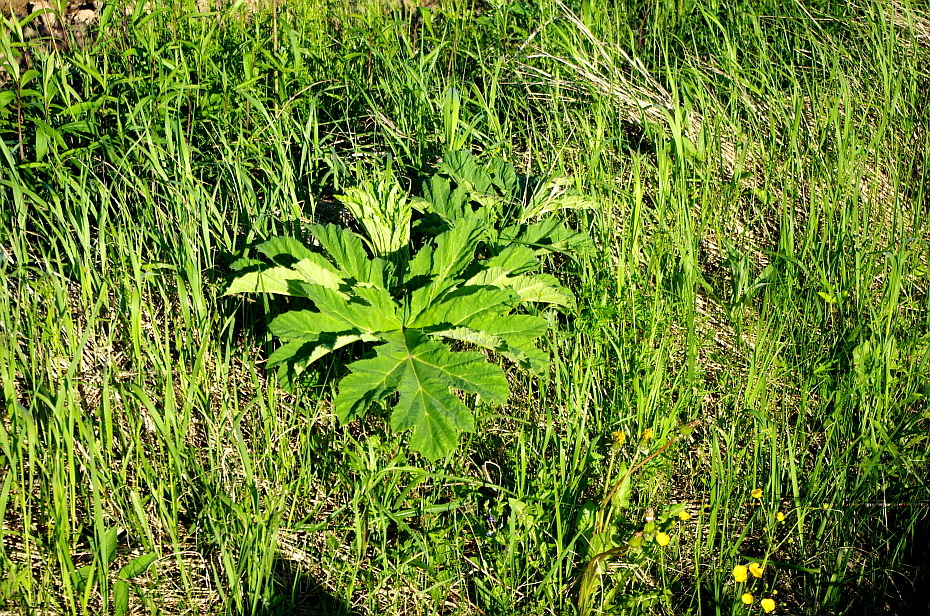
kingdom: Plantae
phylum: Tracheophyta
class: Magnoliopsida
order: Apiales
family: Apiaceae
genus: Heracleum
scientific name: Heracleum sosnowskyi
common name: Sosnowsky's hogweed
